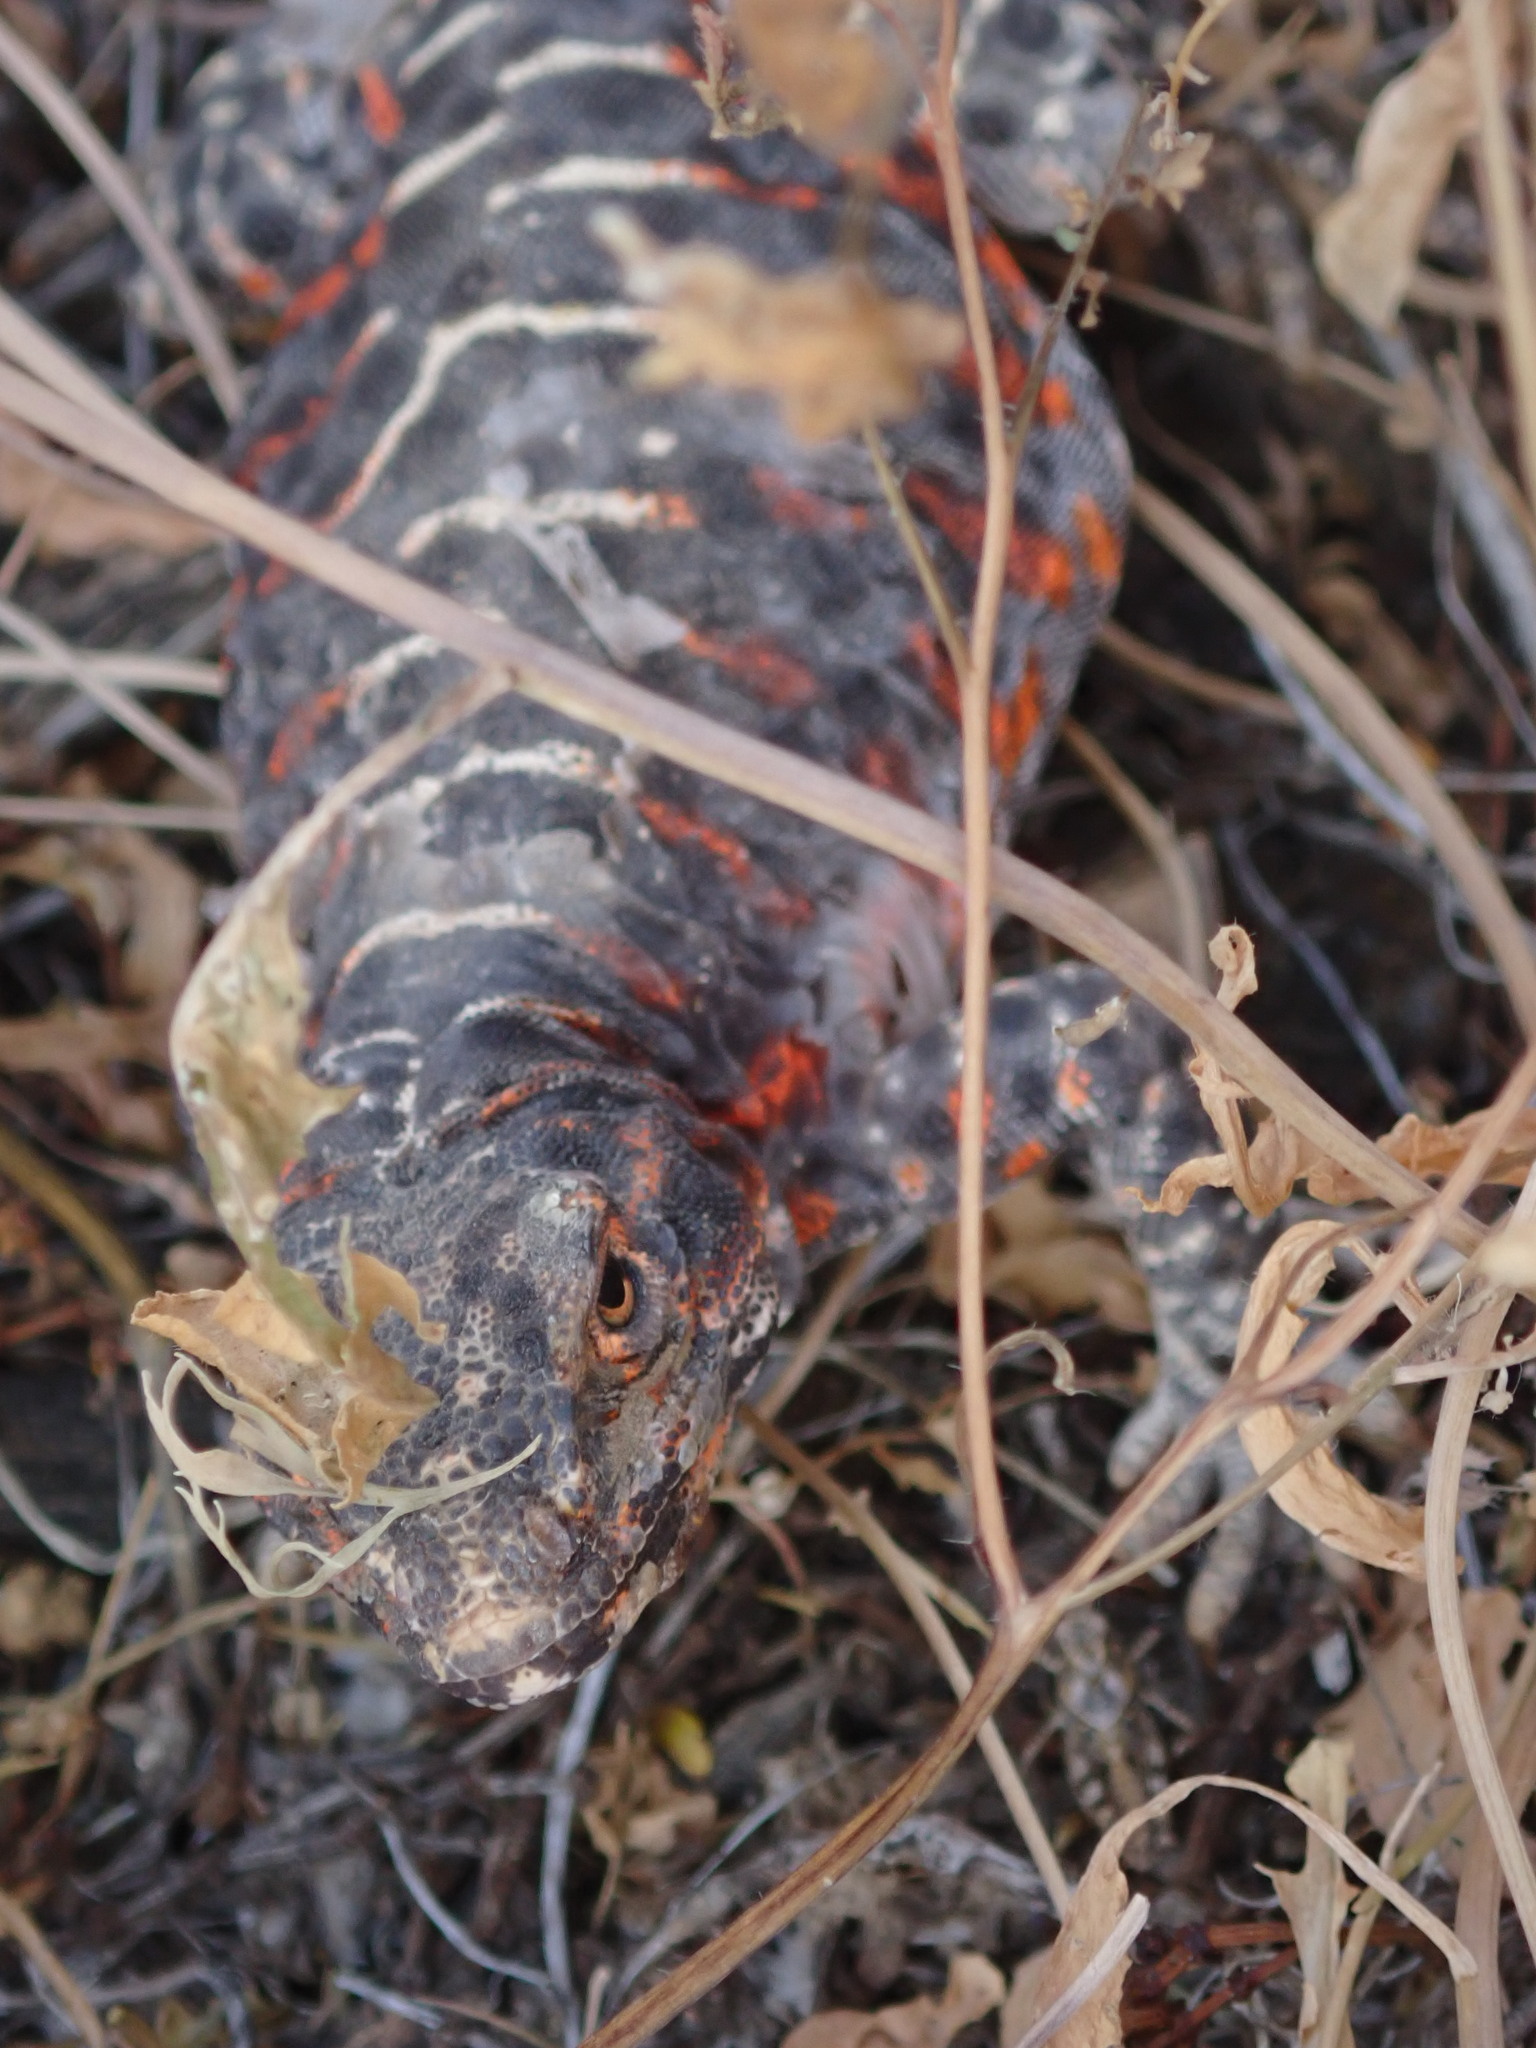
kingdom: Animalia
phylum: Chordata
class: Squamata
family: Crotaphytidae
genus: Gambelia
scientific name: Gambelia wislizenii
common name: Longnose leopard lizard
